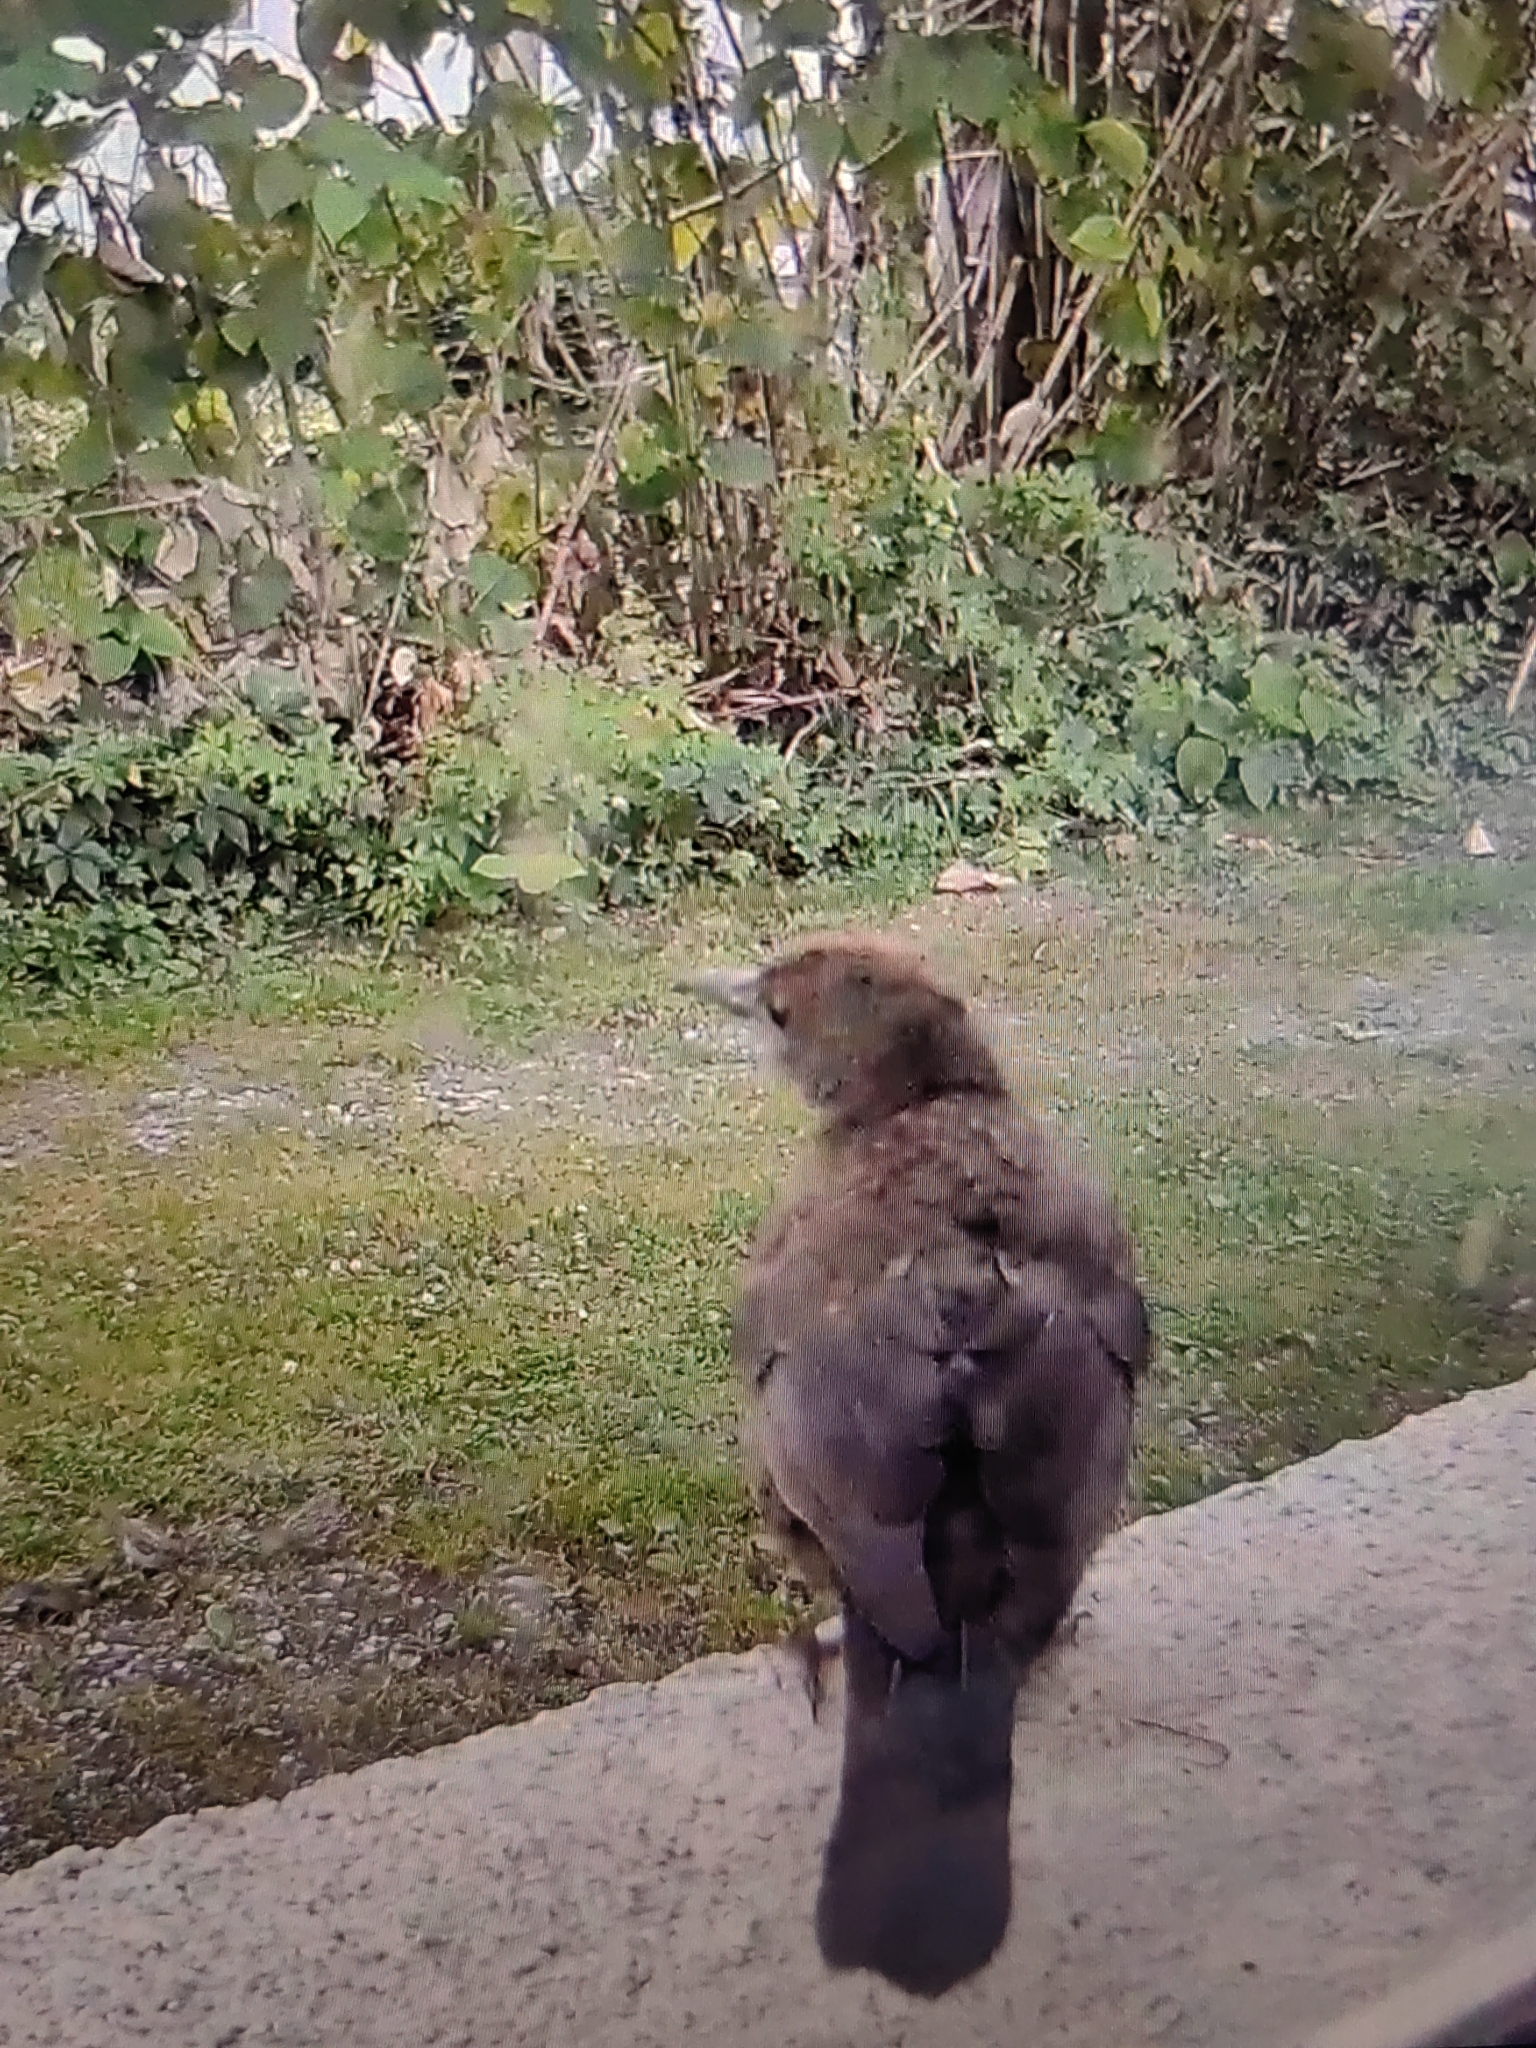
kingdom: Animalia
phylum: Chordata
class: Aves
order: Passeriformes
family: Turdidae
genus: Turdus
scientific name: Turdus merula
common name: Common blackbird
